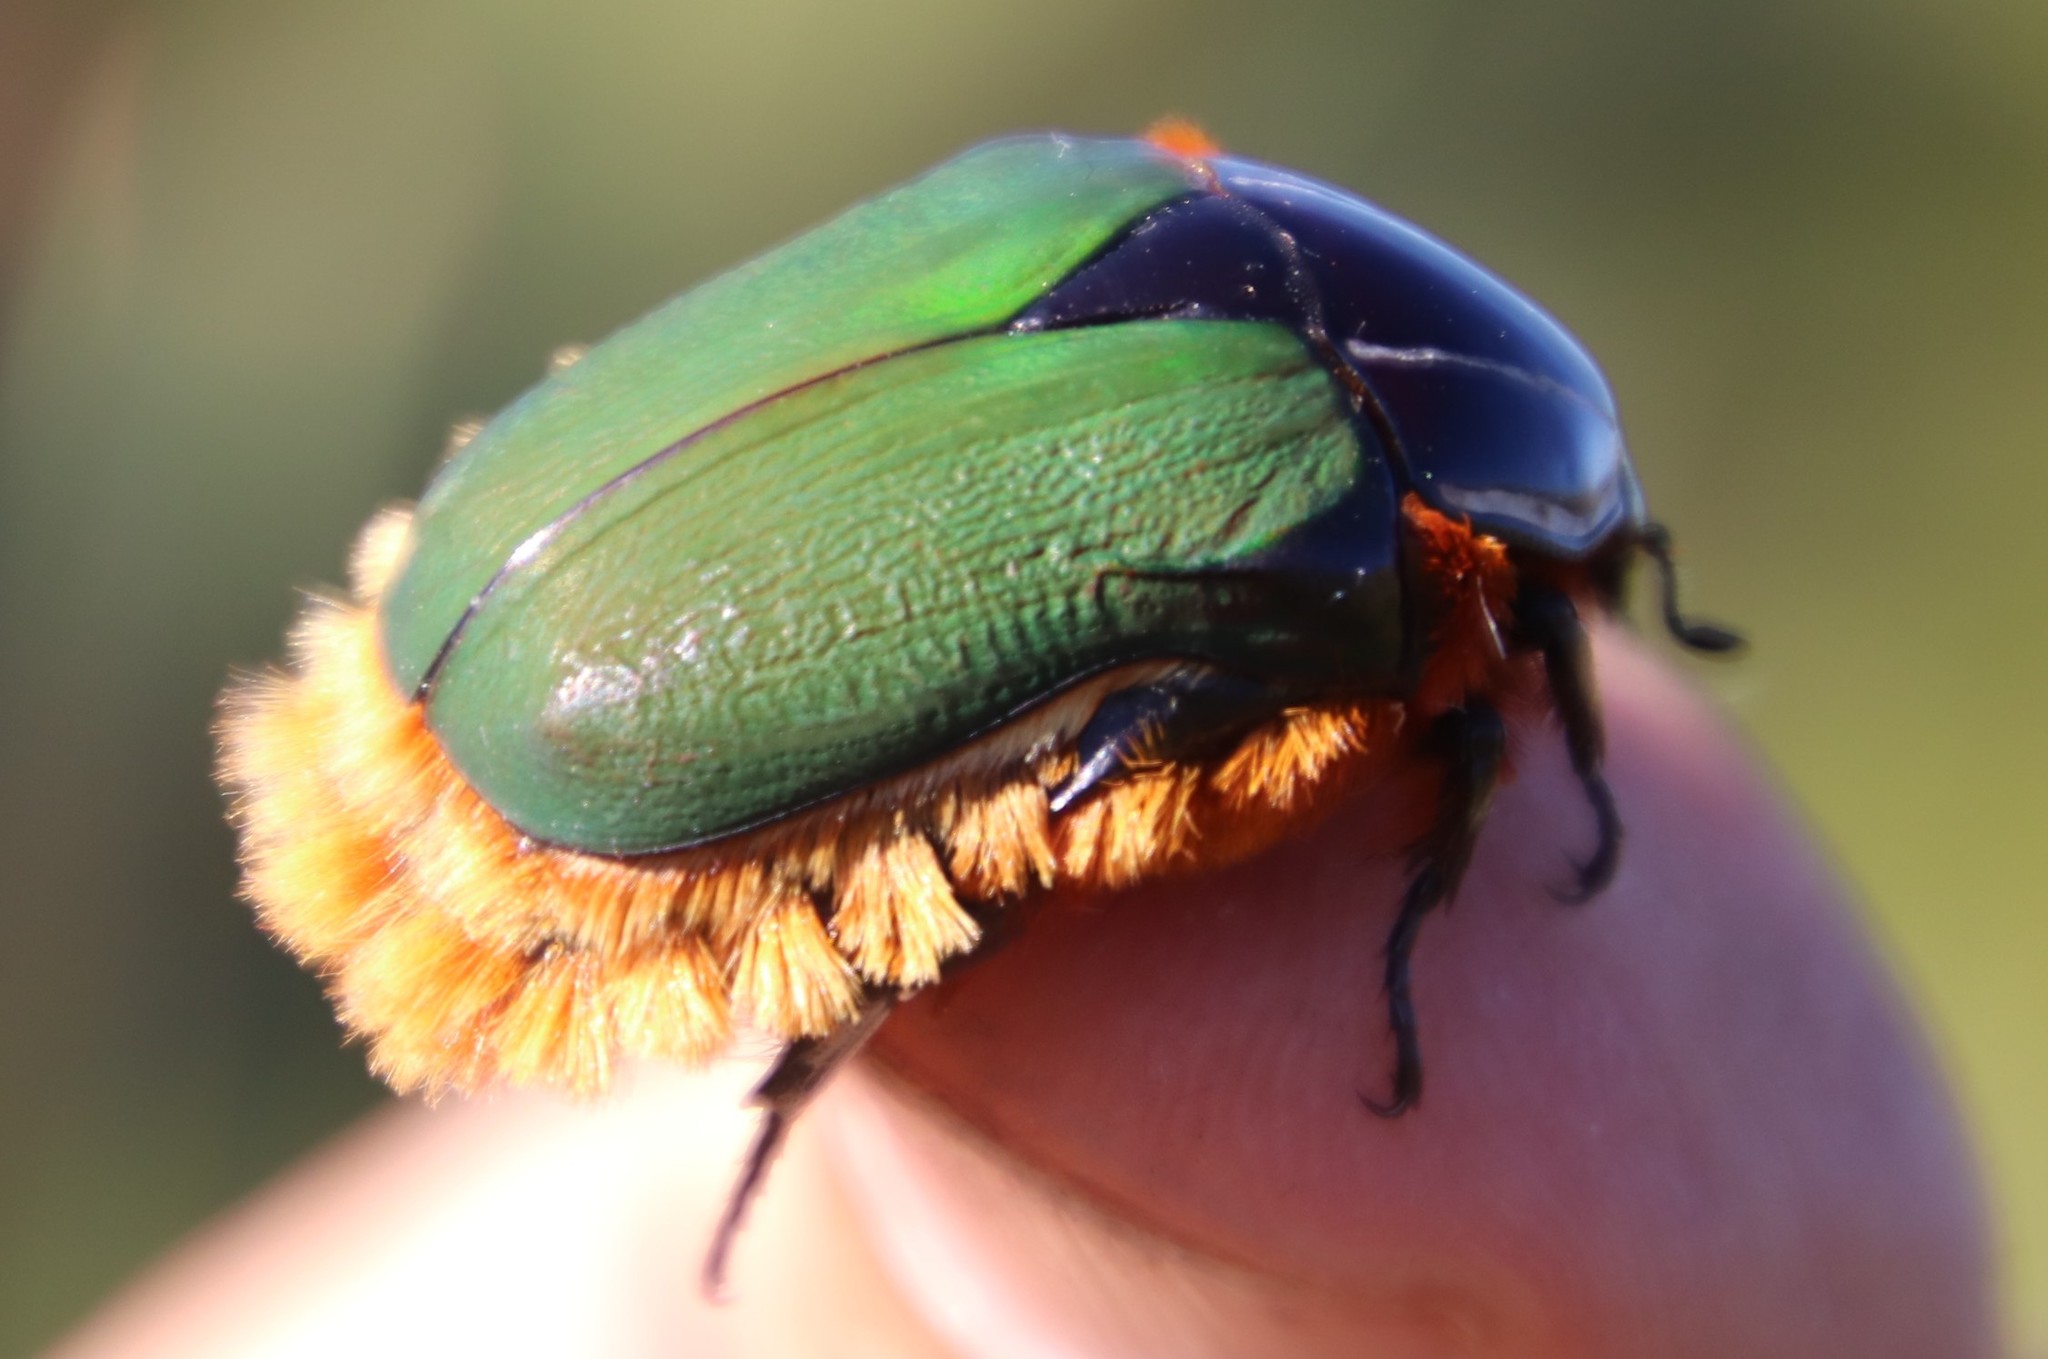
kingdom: Animalia
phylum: Arthropoda
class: Insecta
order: Coleoptera
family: Scarabaeidae
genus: Trichostetha
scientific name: Trichostetha fascicularis
